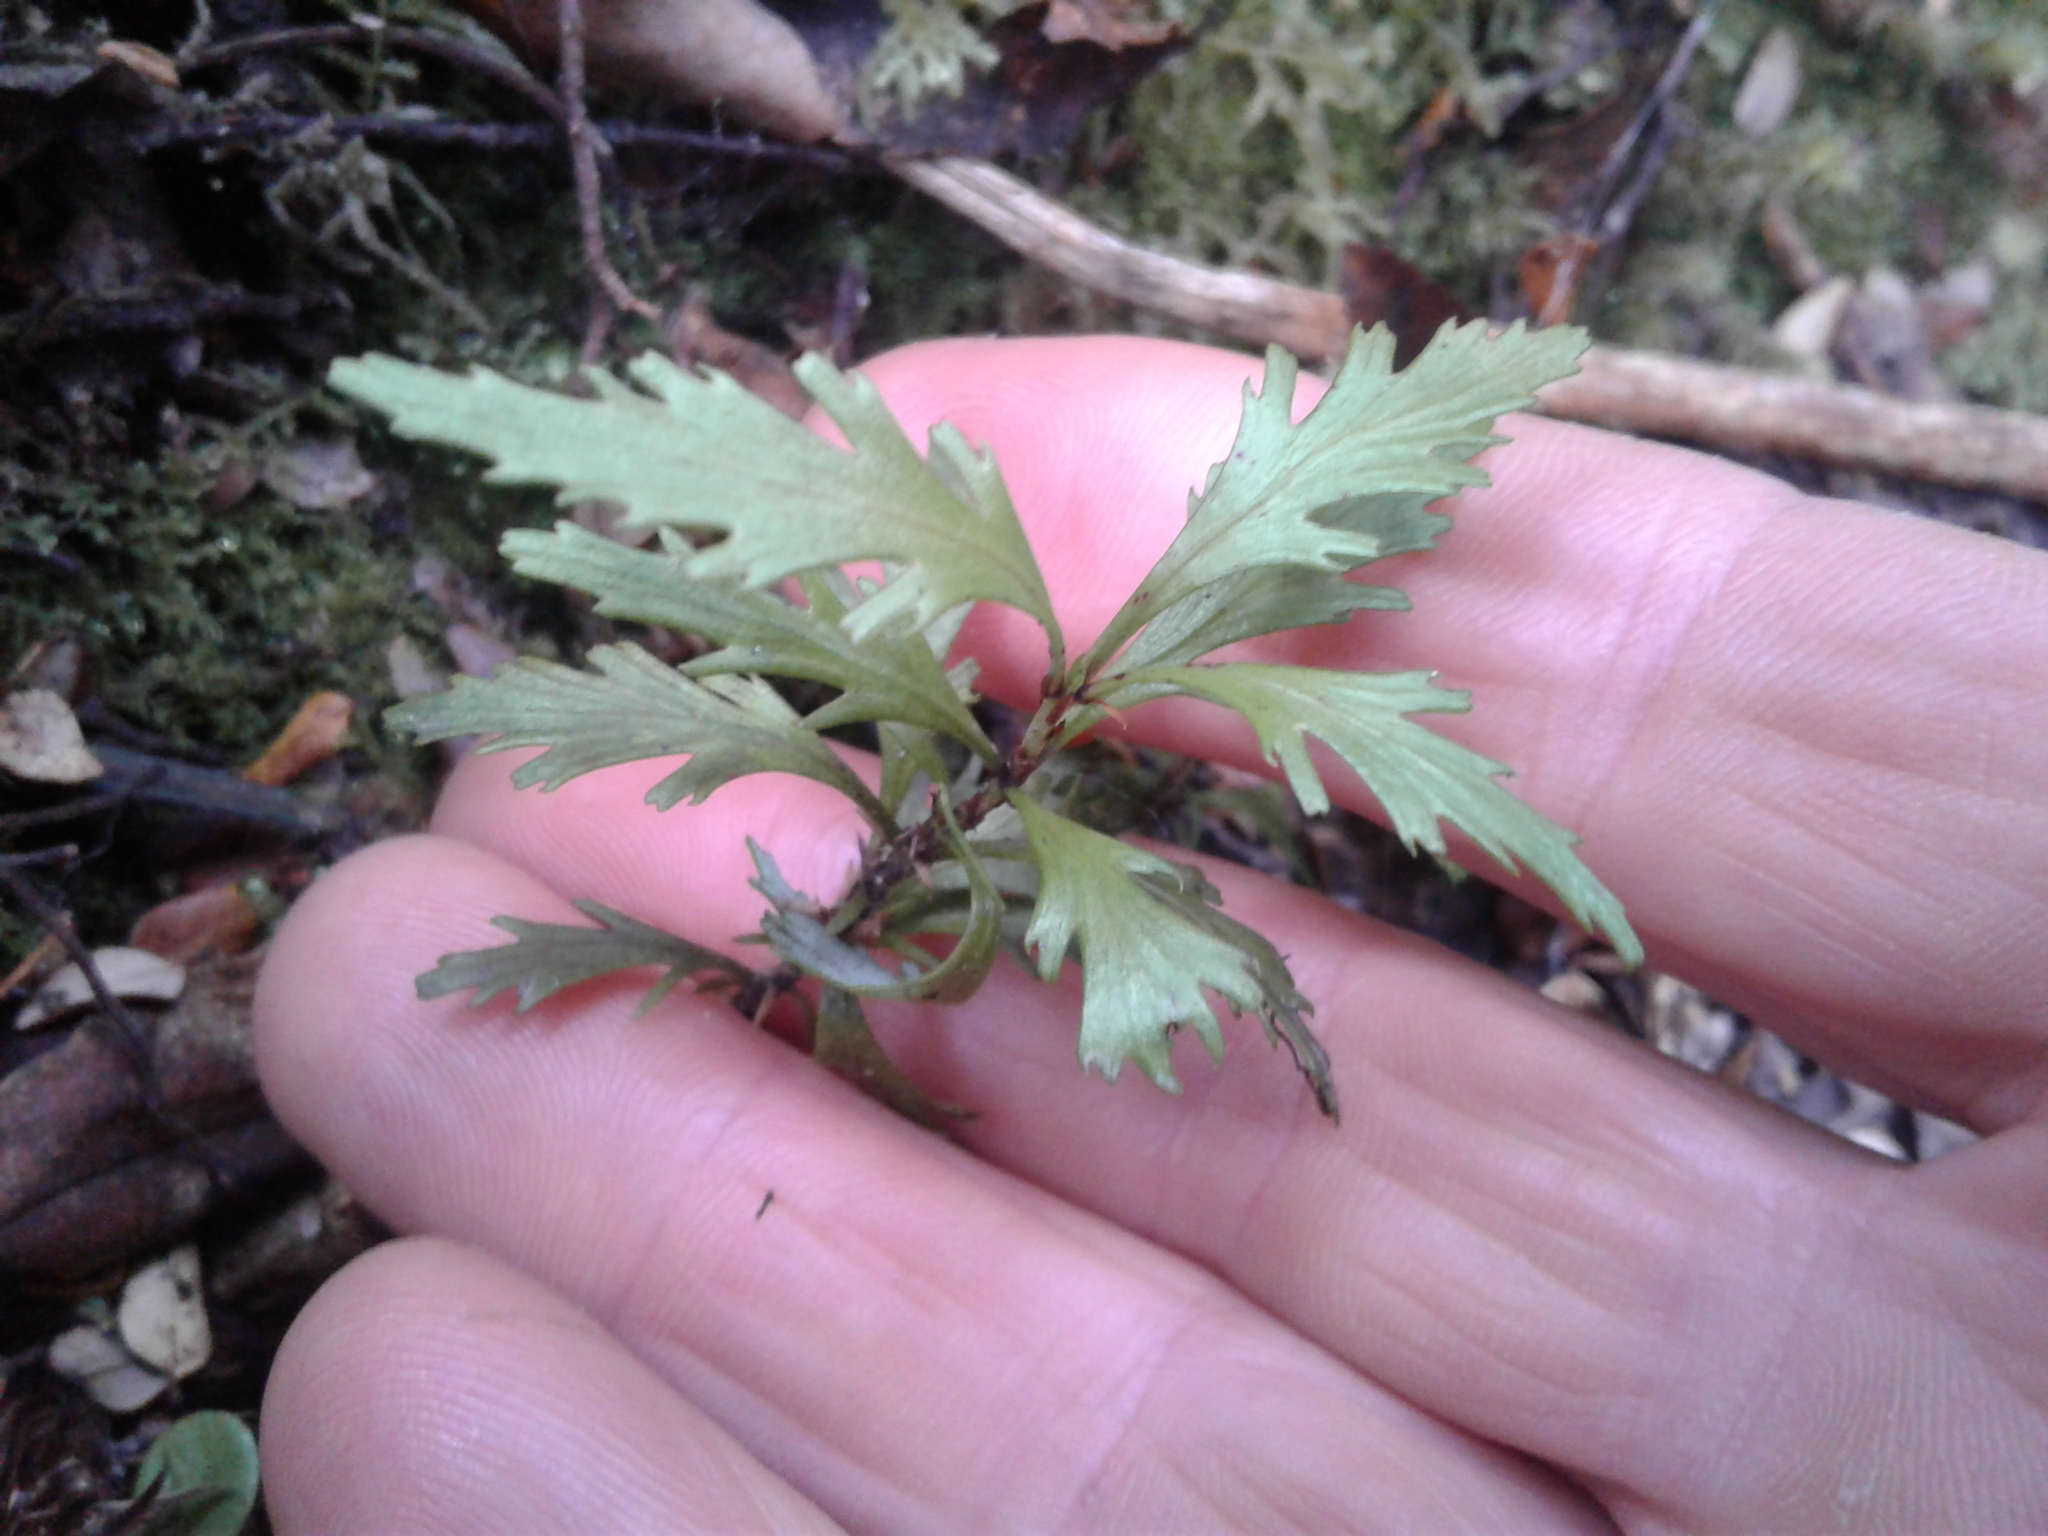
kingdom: Plantae
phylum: Tracheophyta
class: Pinopsida
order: Pinales
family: Phyllocladaceae
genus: Phyllocladus
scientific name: Phyllocladus trichomanoides
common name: Celery pine
